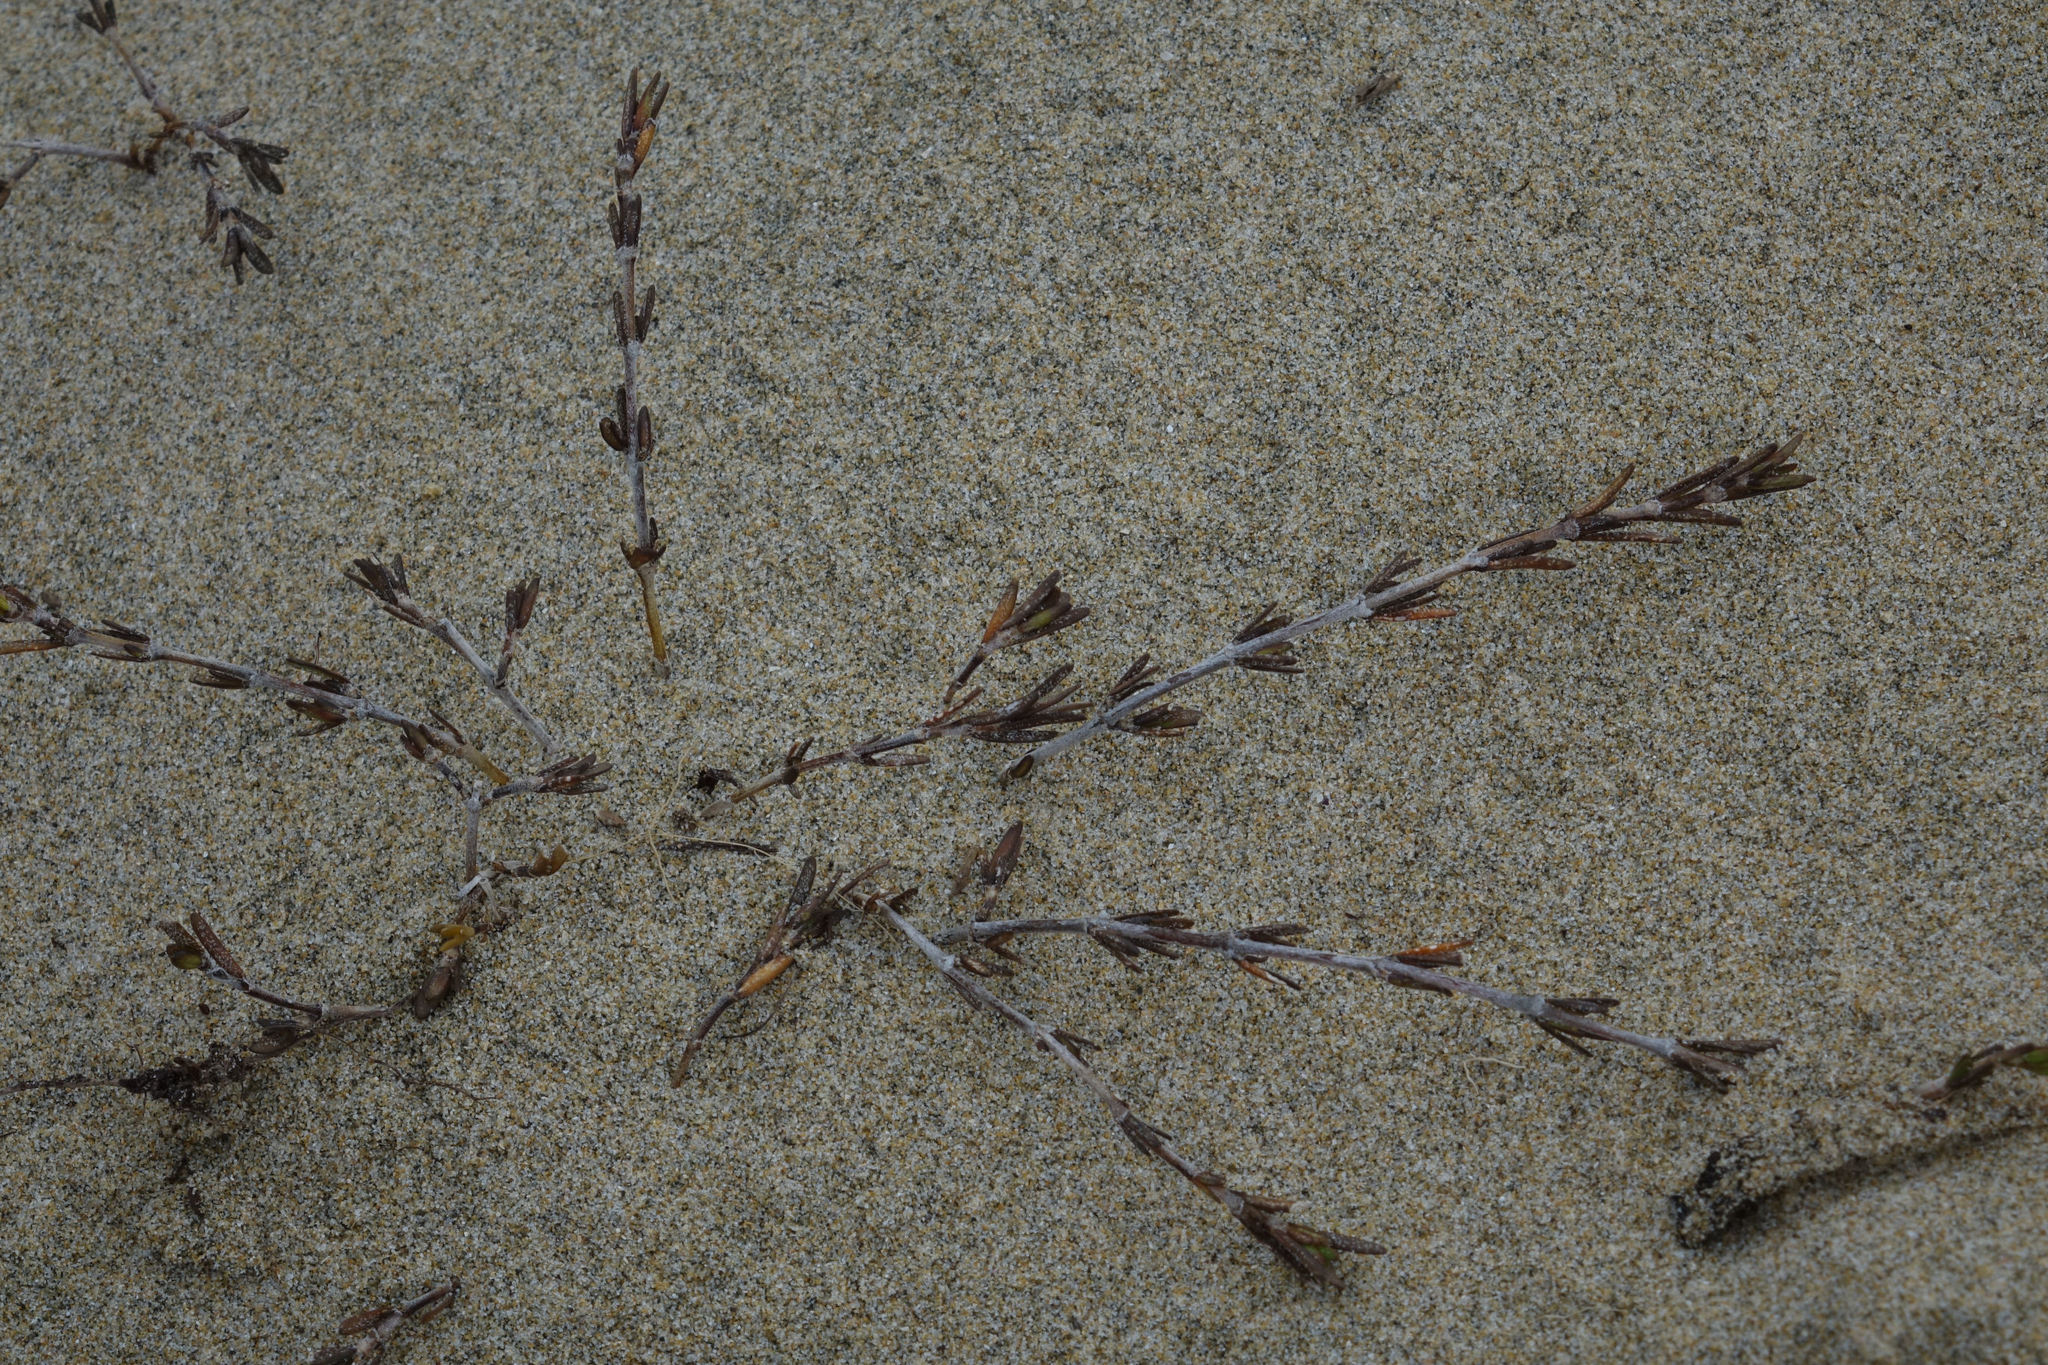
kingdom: Plantae
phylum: Tracheophyta
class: Magnoliopsida
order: Gentianales
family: Rubiaceae
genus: Coprosma
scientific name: Coprosma acerosa
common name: Sand coprosma
